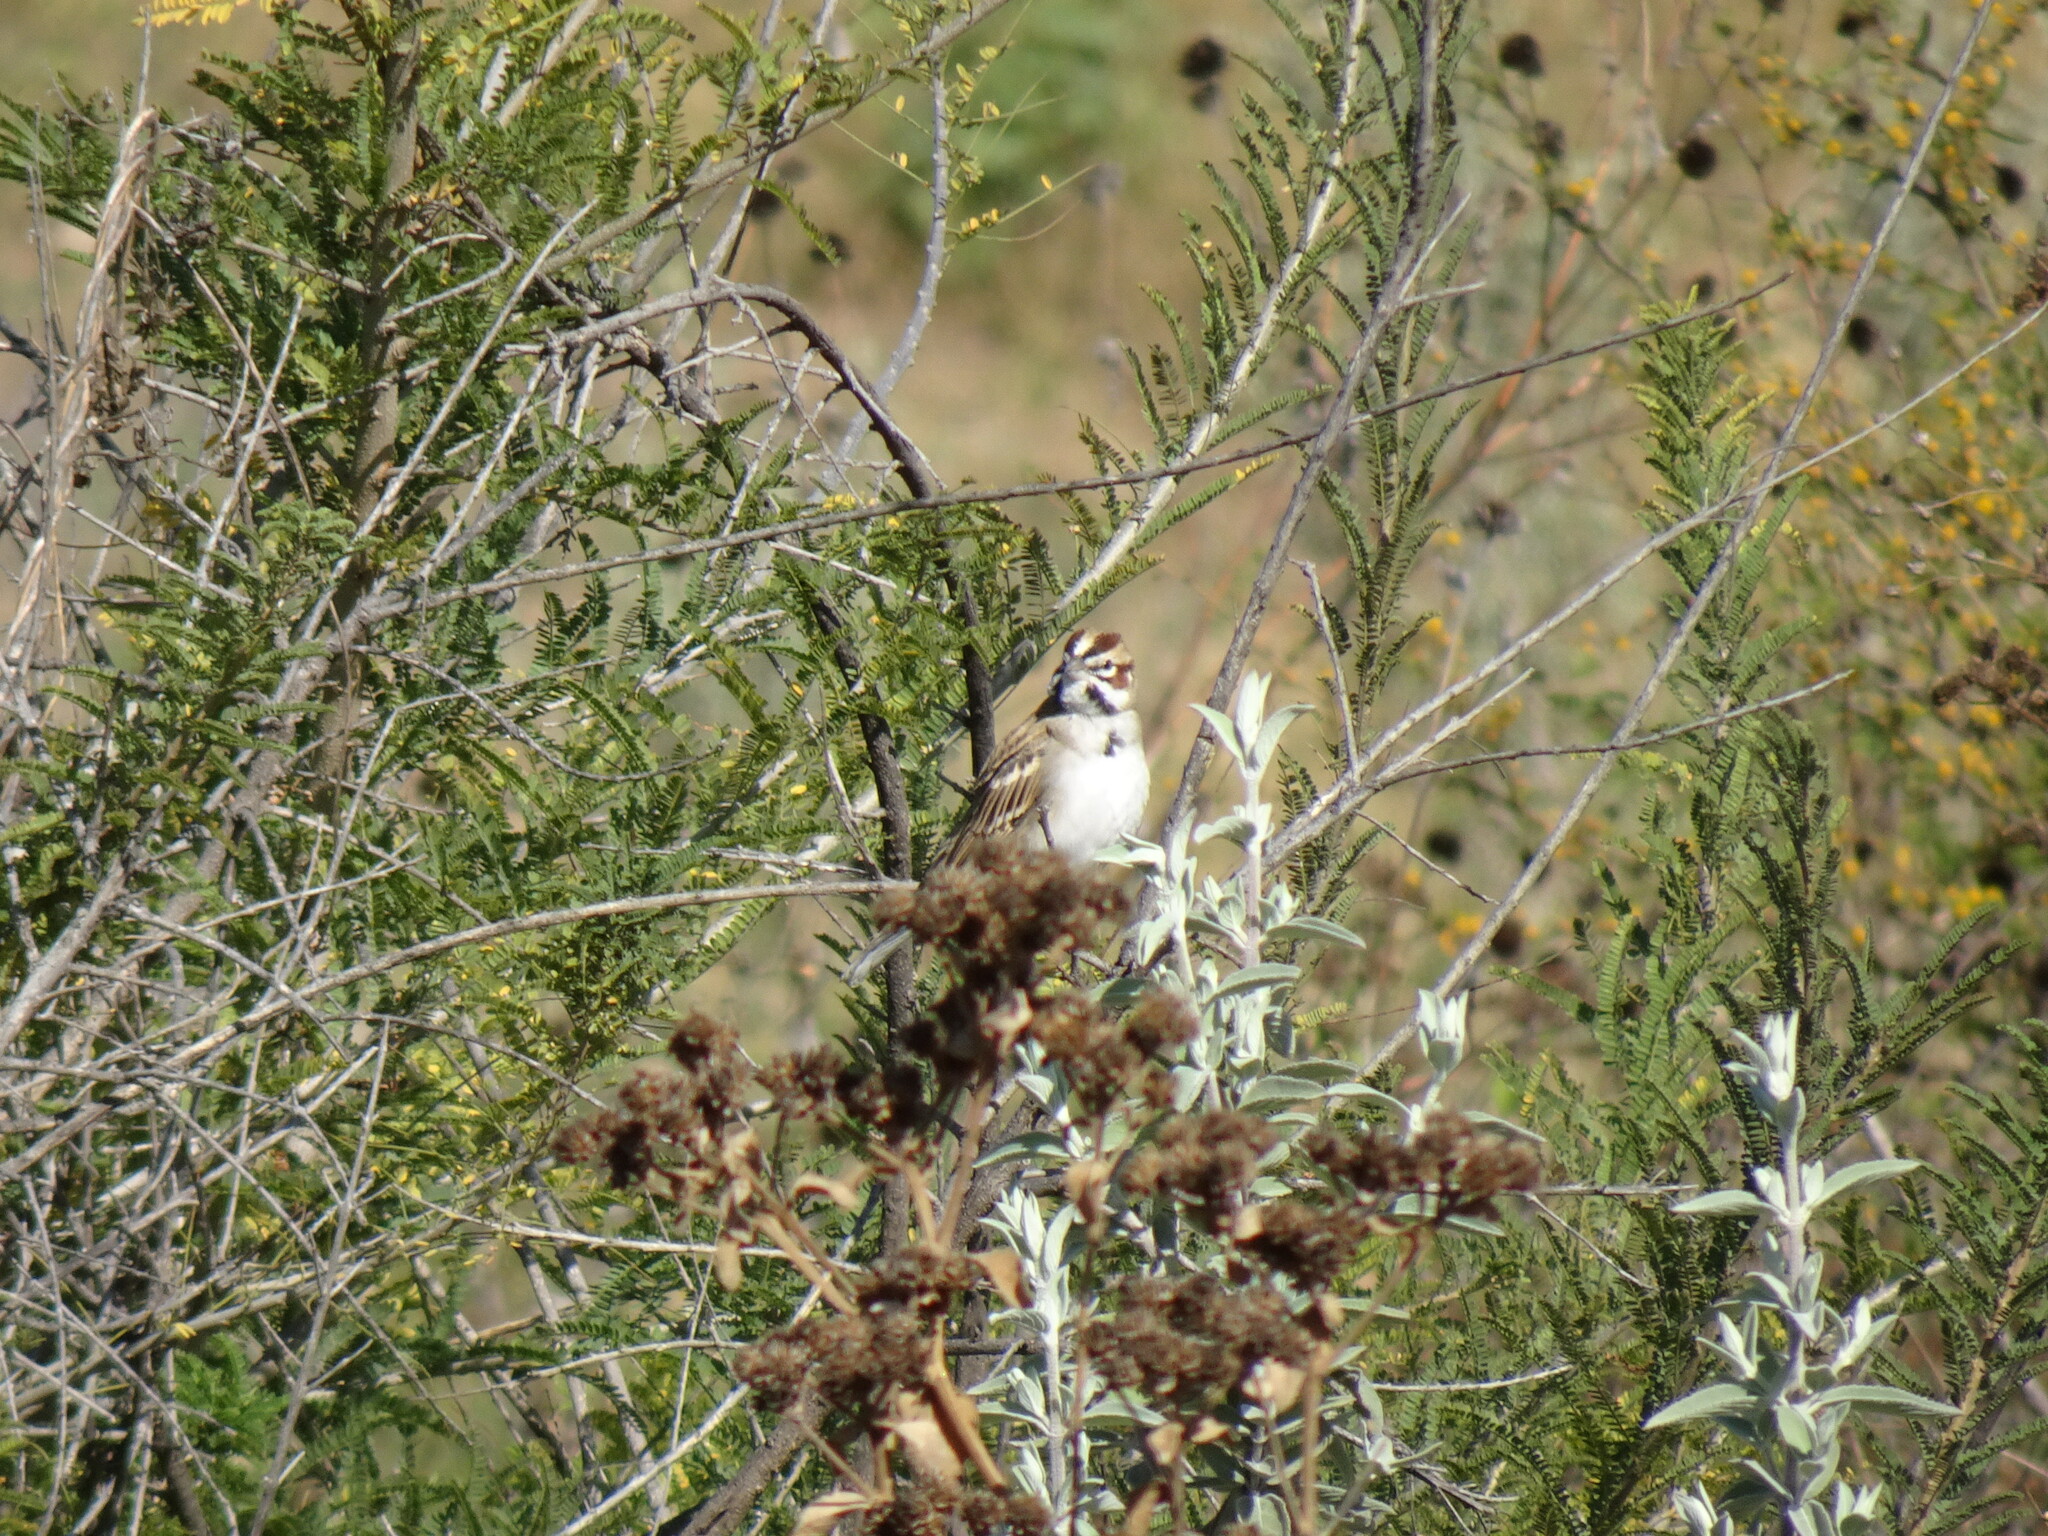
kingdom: Animalia
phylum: Chordata
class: Aves
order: Passeriformes
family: Passerellidae
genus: Chondestes
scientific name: Chondestes grammacus
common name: Lark sparrow
